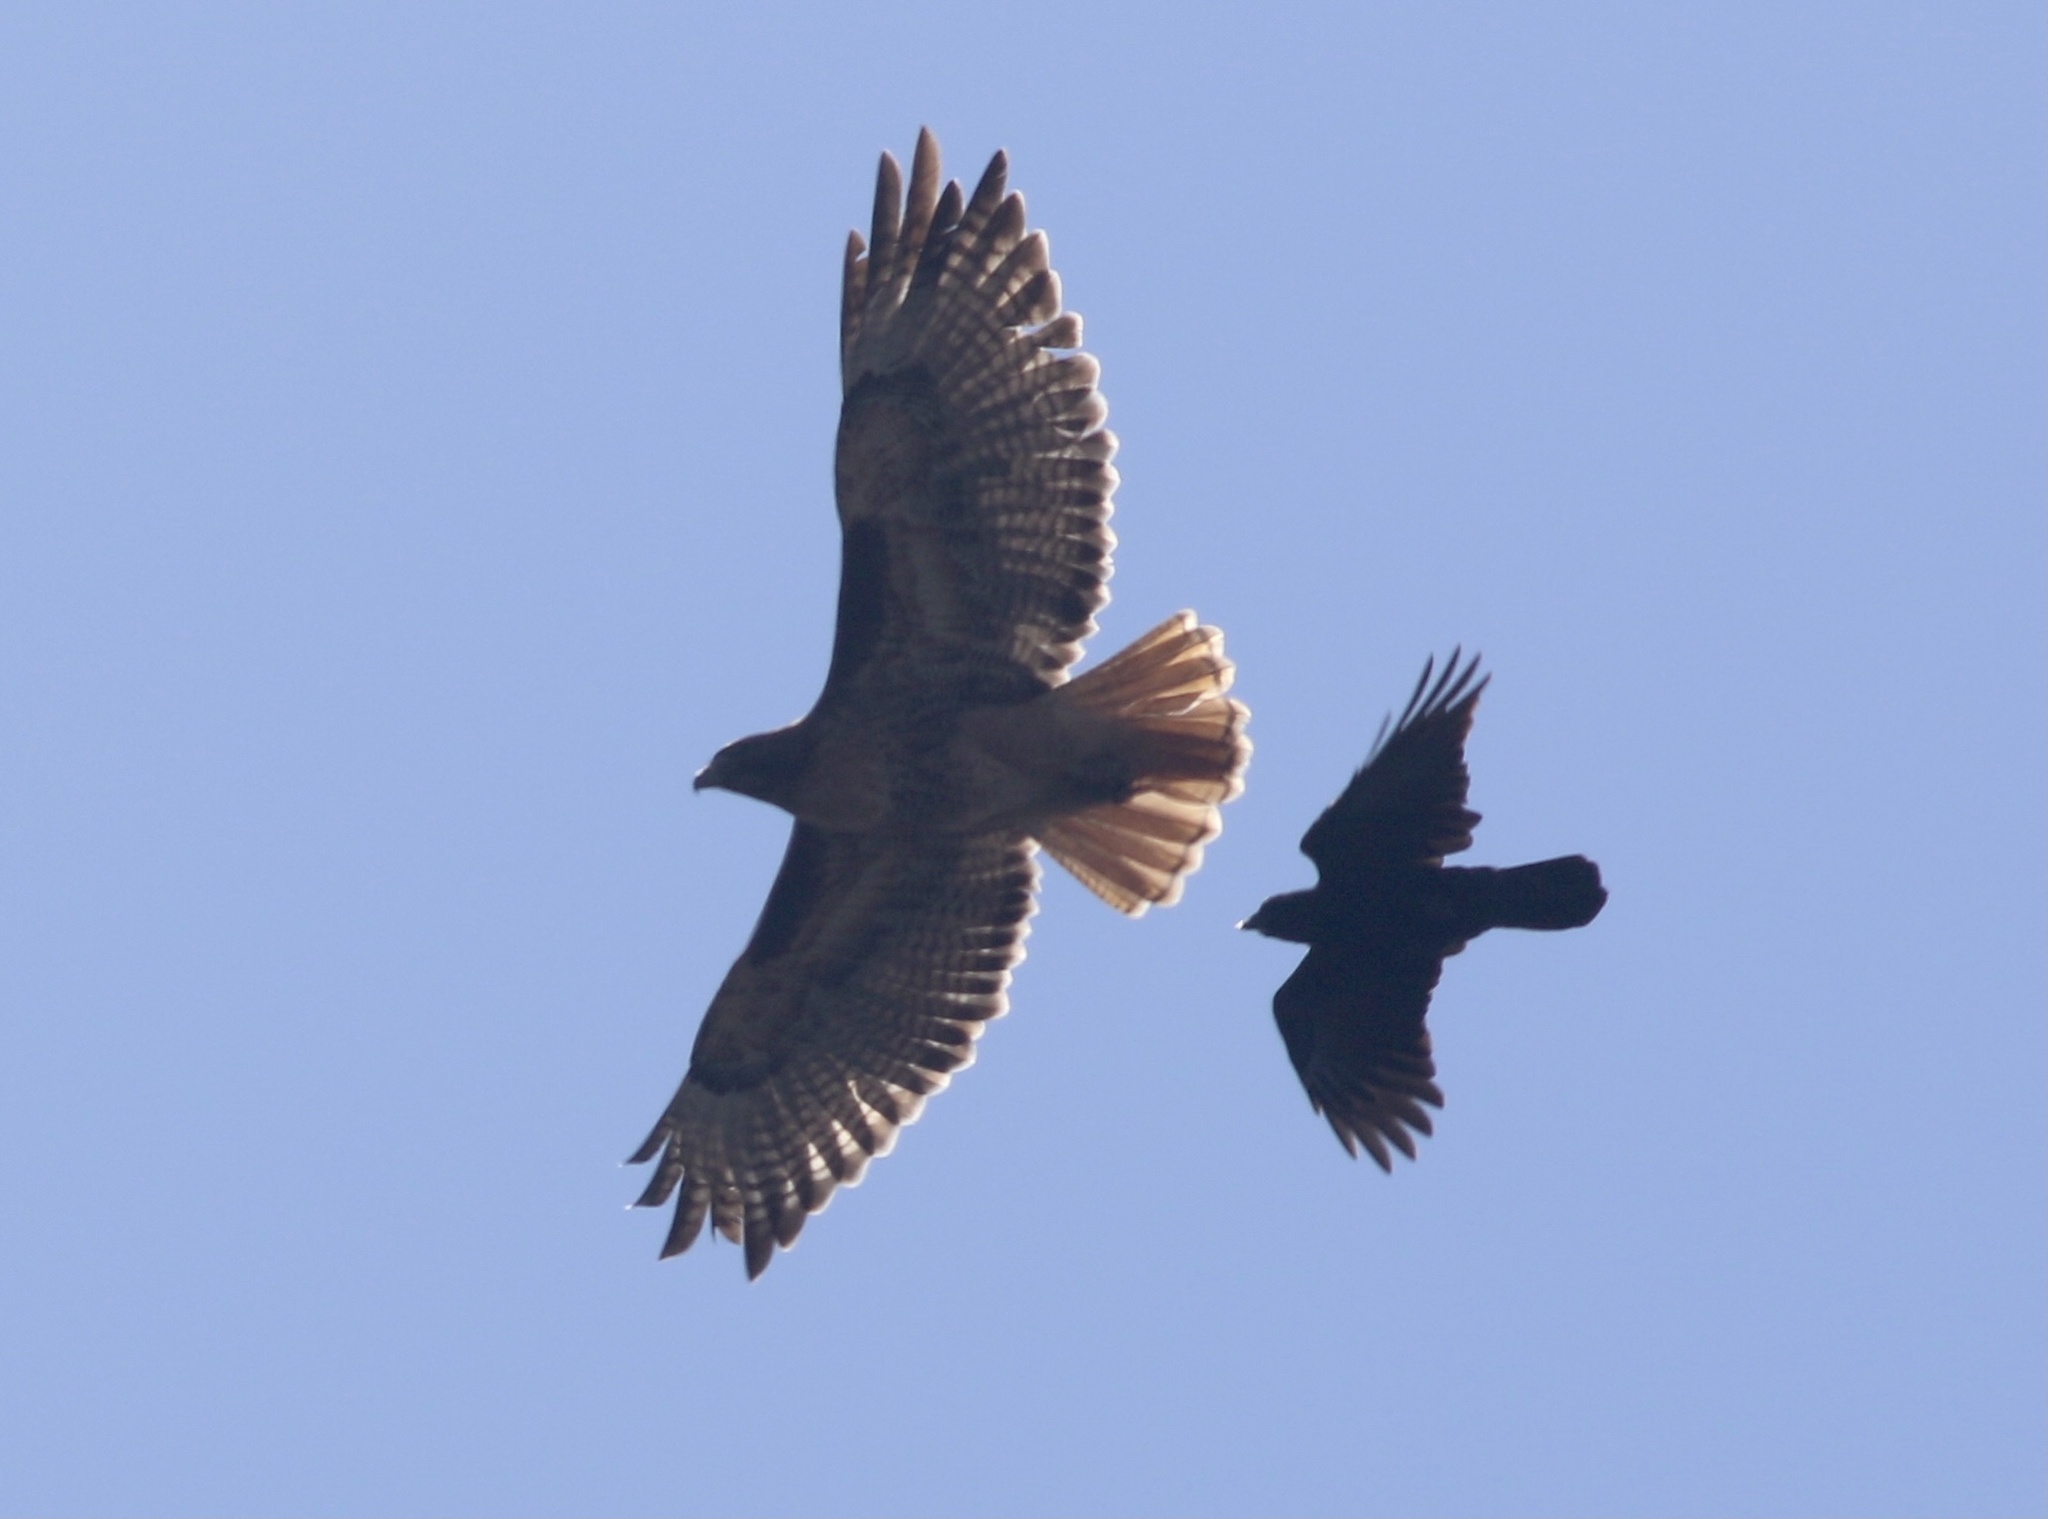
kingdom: Animalia
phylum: Chordata
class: Aves
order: Accipitriformes
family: Accipitridae
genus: Buteo
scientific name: Buteo jamaicensis
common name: Red-tailed hawk
